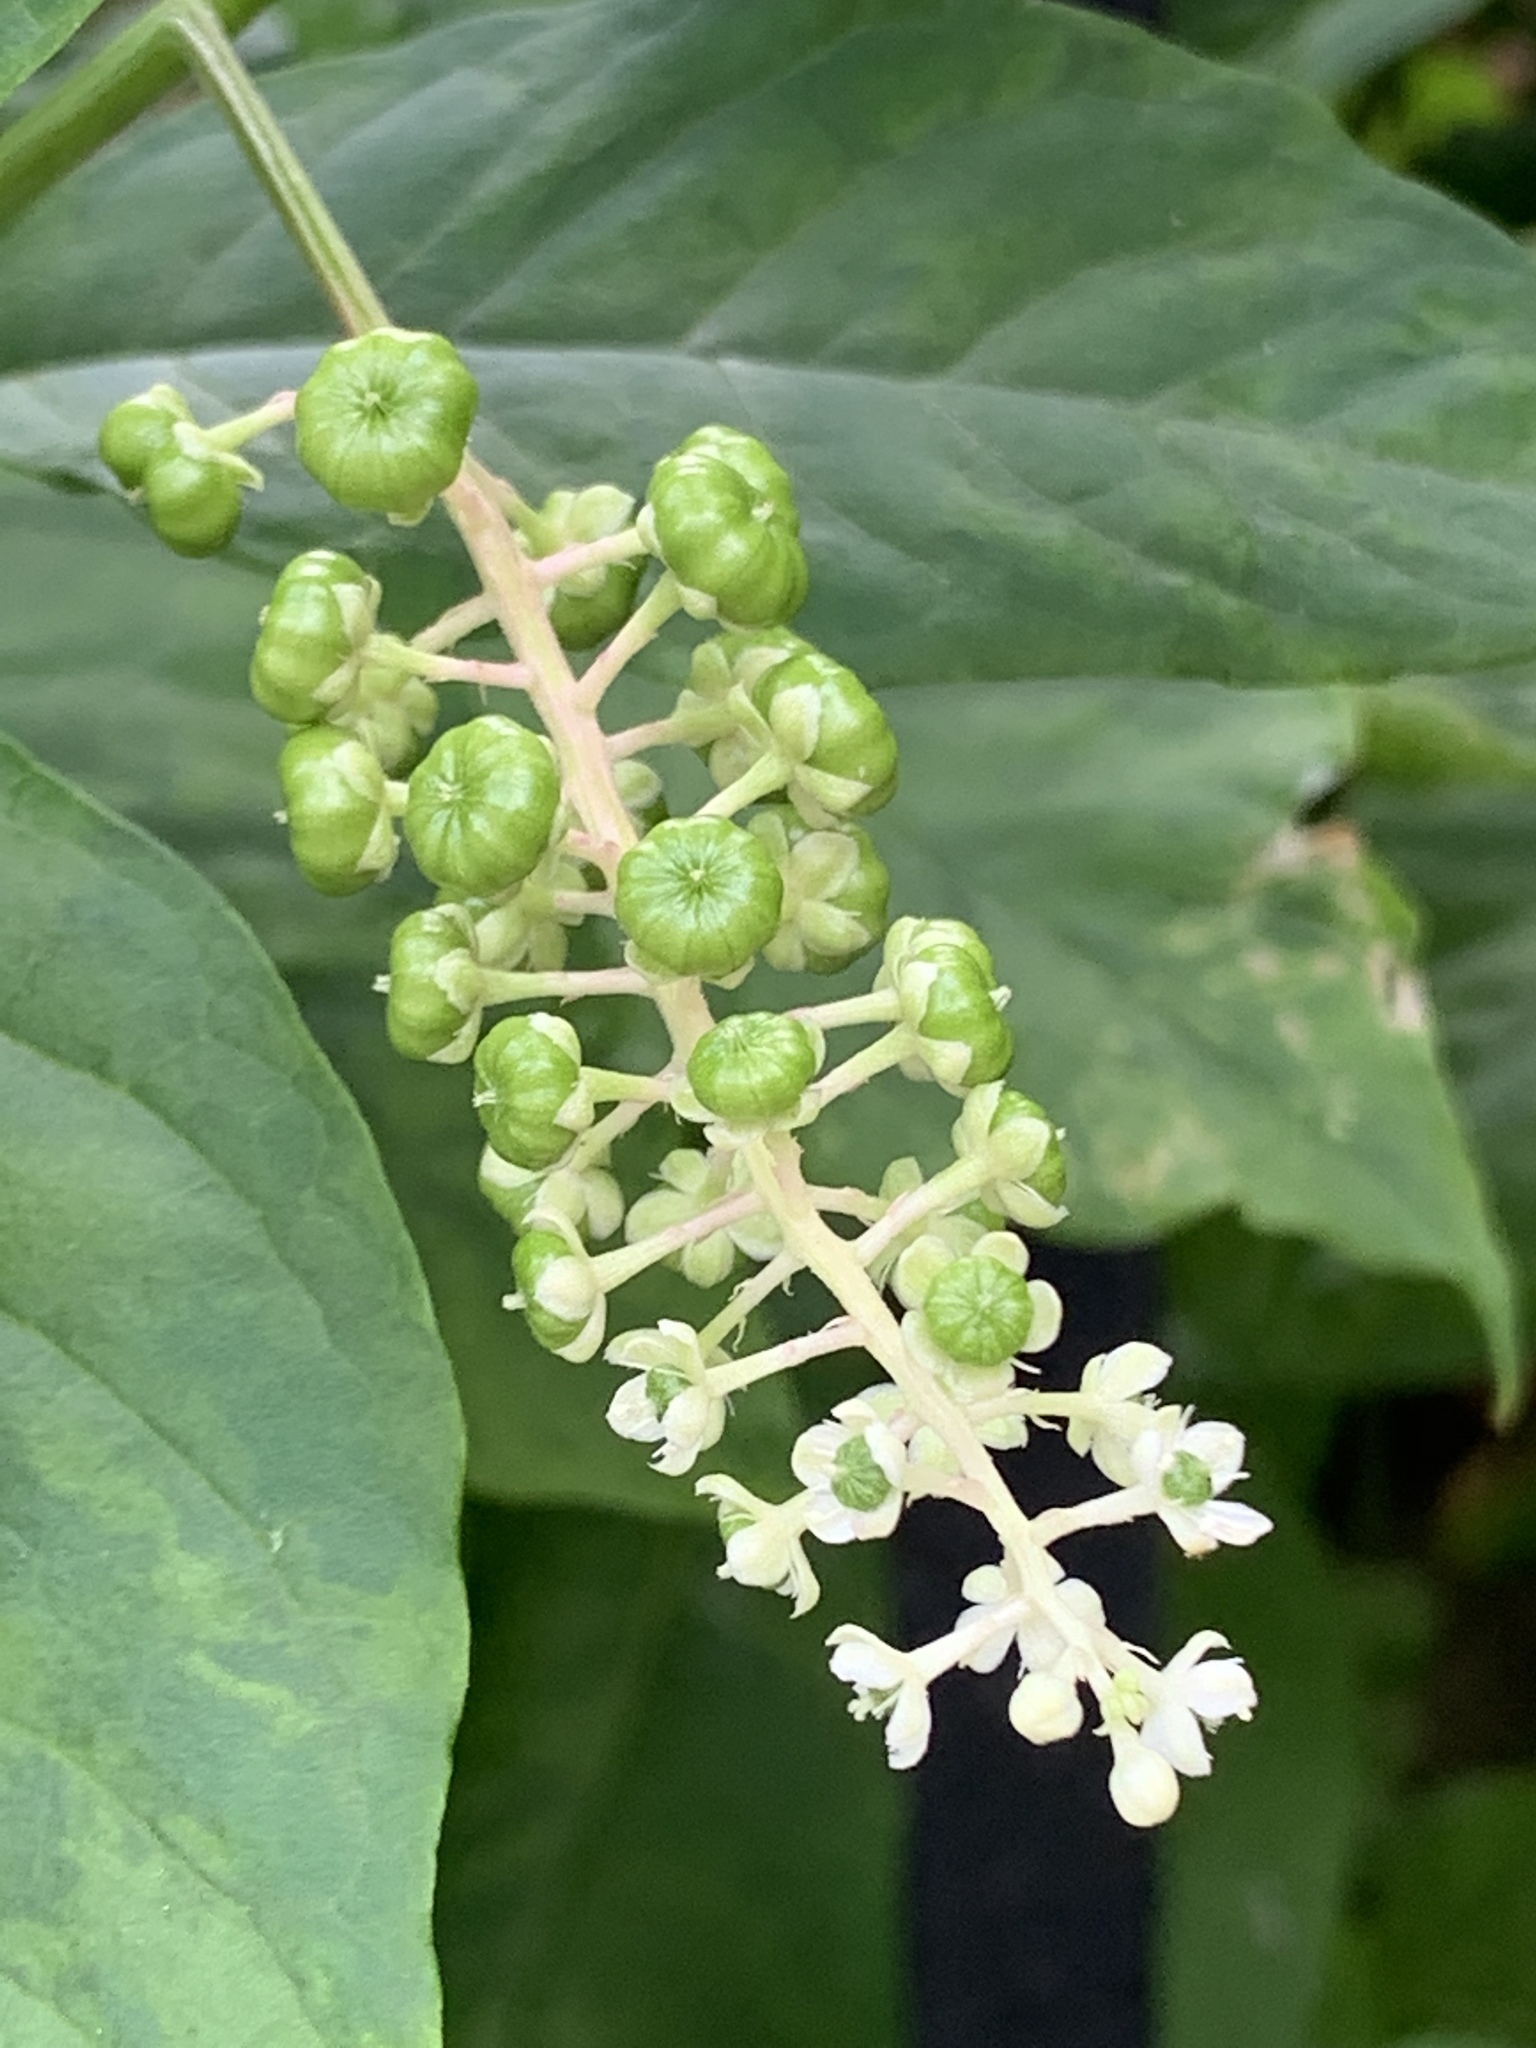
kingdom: Plantae
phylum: Tracheophyta
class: Magnoliopsida
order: Caryophyllales
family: Phytolaccaceae
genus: Phytolacca
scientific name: Phytolacca americana
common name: American pokeweed
